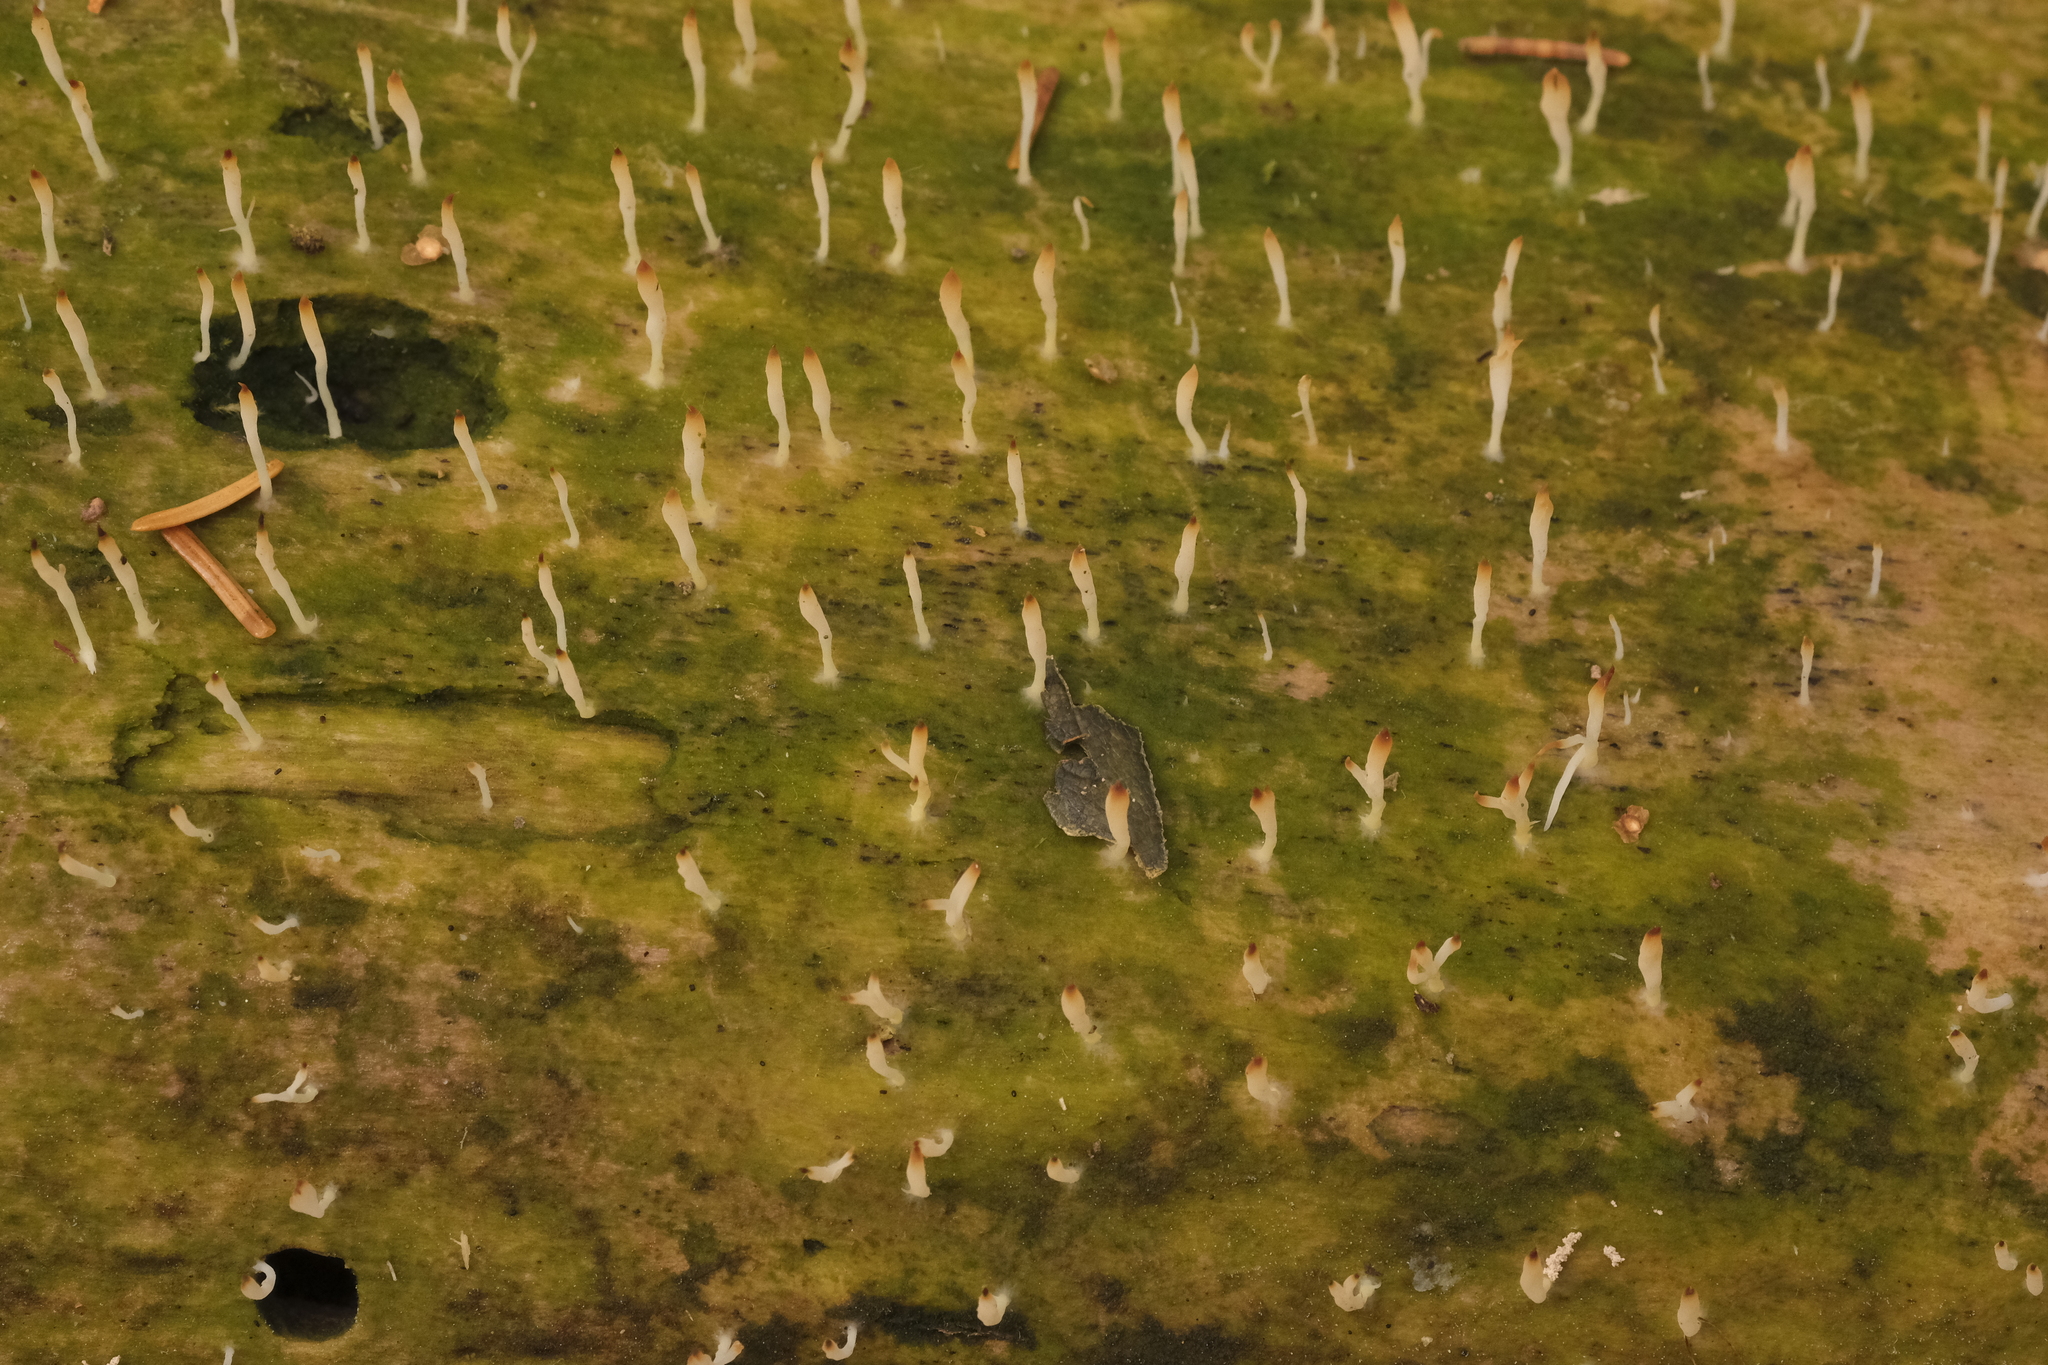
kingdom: Fungi
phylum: Basidiomycota
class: Agaricomycetes
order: Cantharellales
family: Hydnaceae
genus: Multiclavula
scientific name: Multiclavula mucida
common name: White green-algae coral
